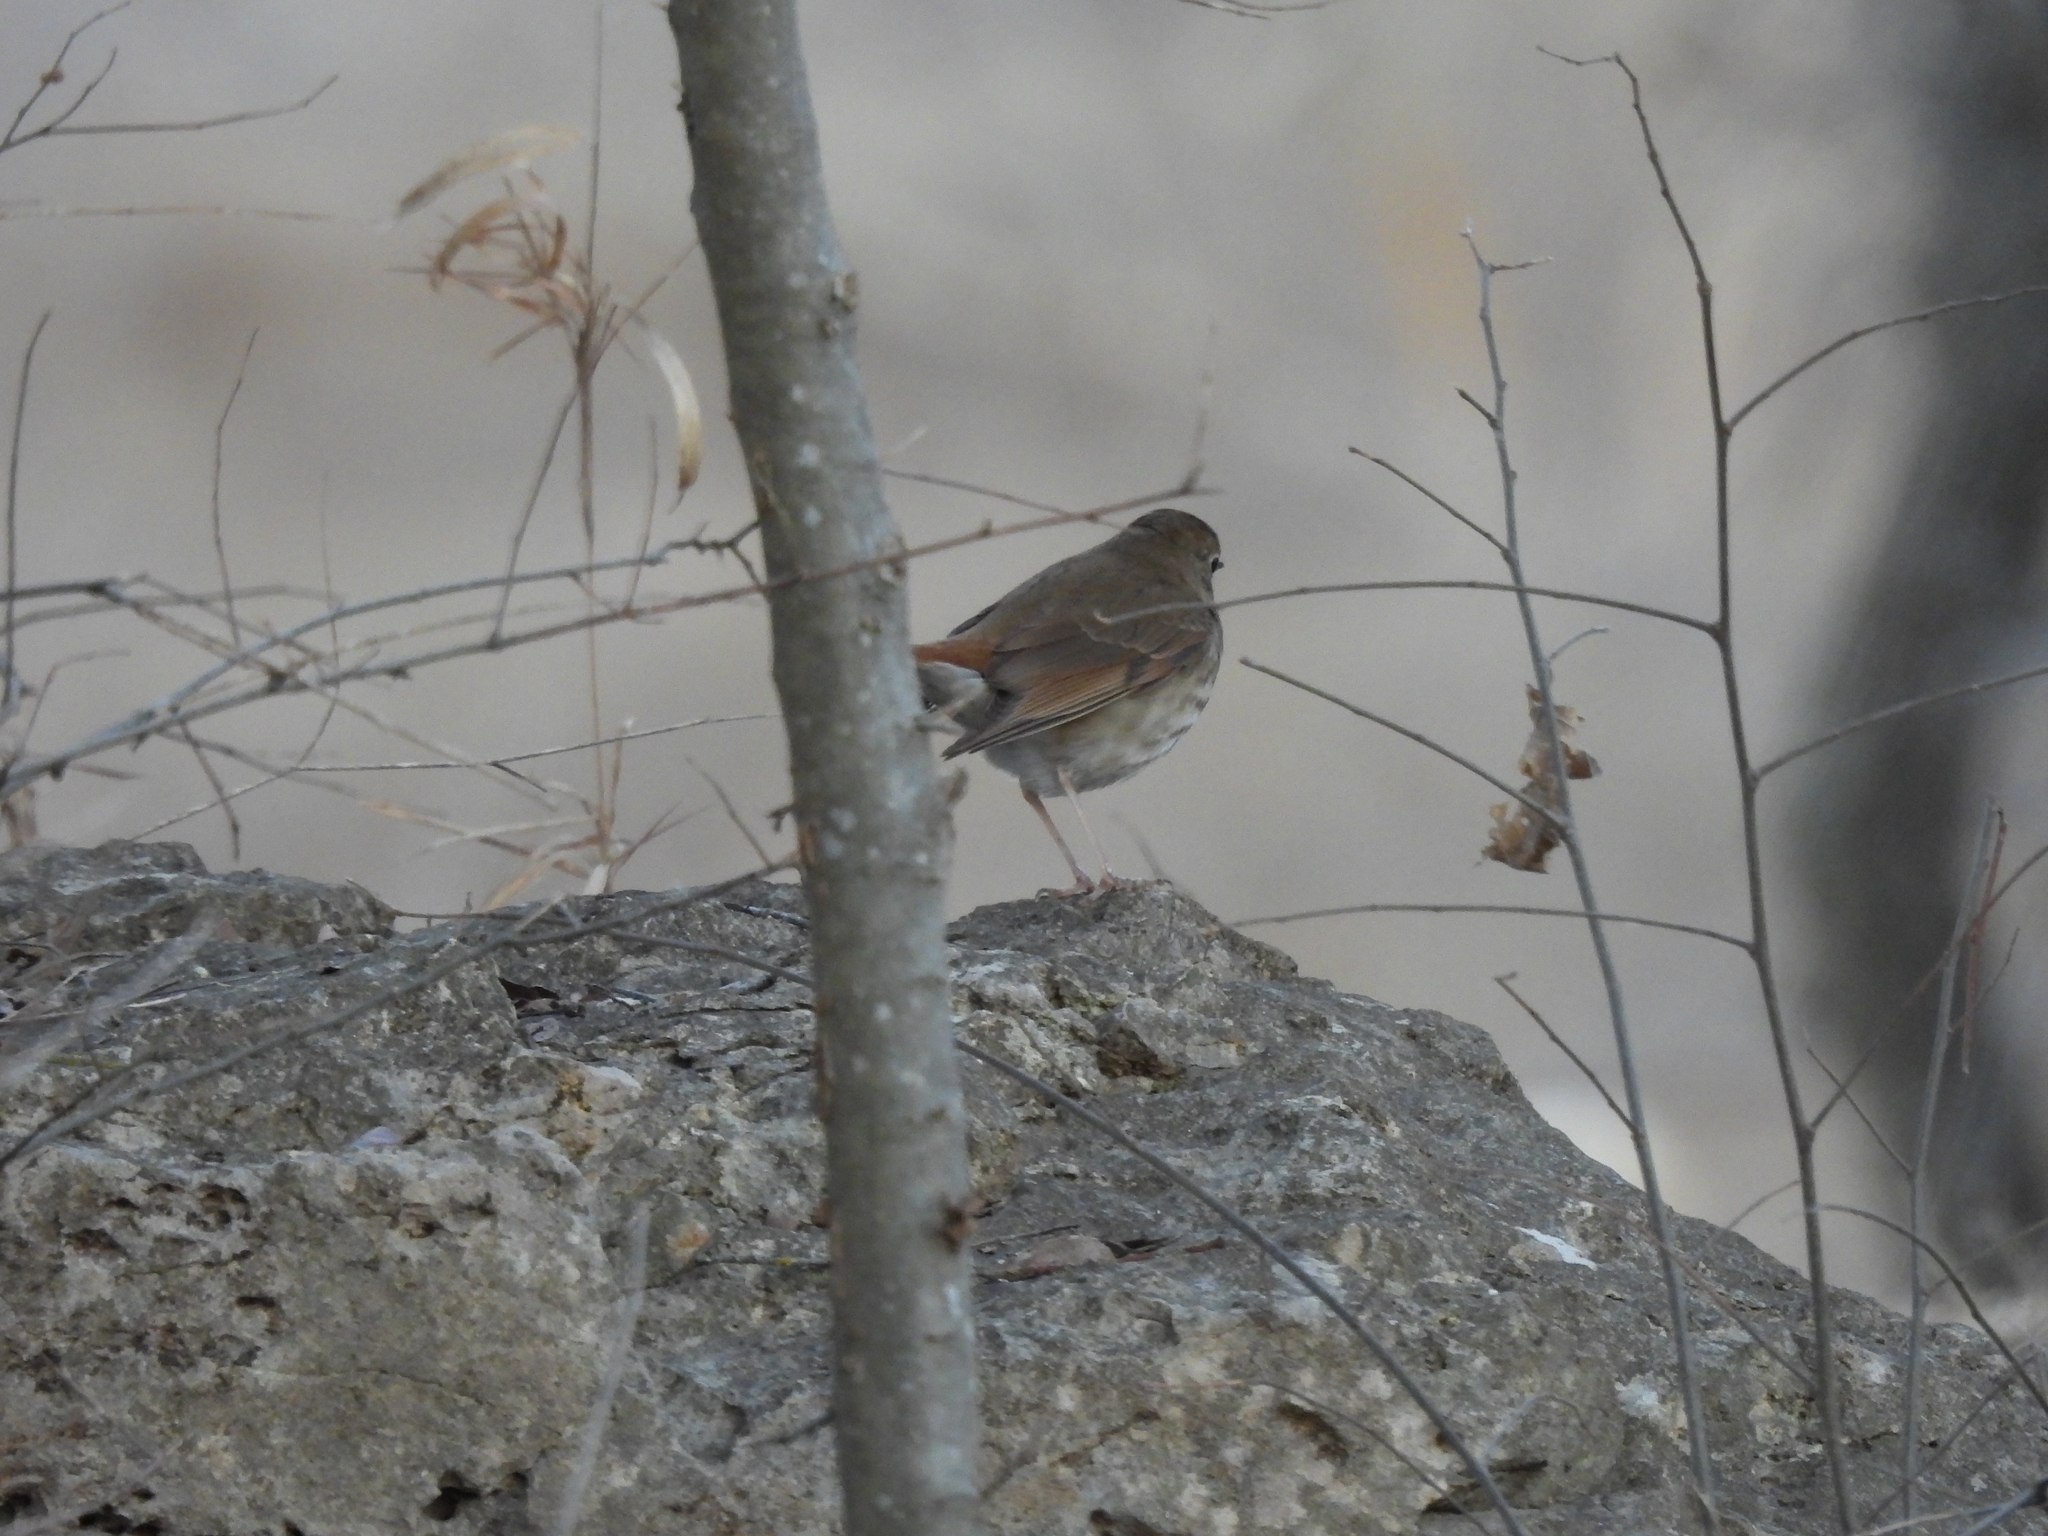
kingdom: Animalia
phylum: Chordata
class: Aves
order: Passeriformes
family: Turdidae
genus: Catharus
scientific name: Catharus guttatus
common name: Hermit thrush
